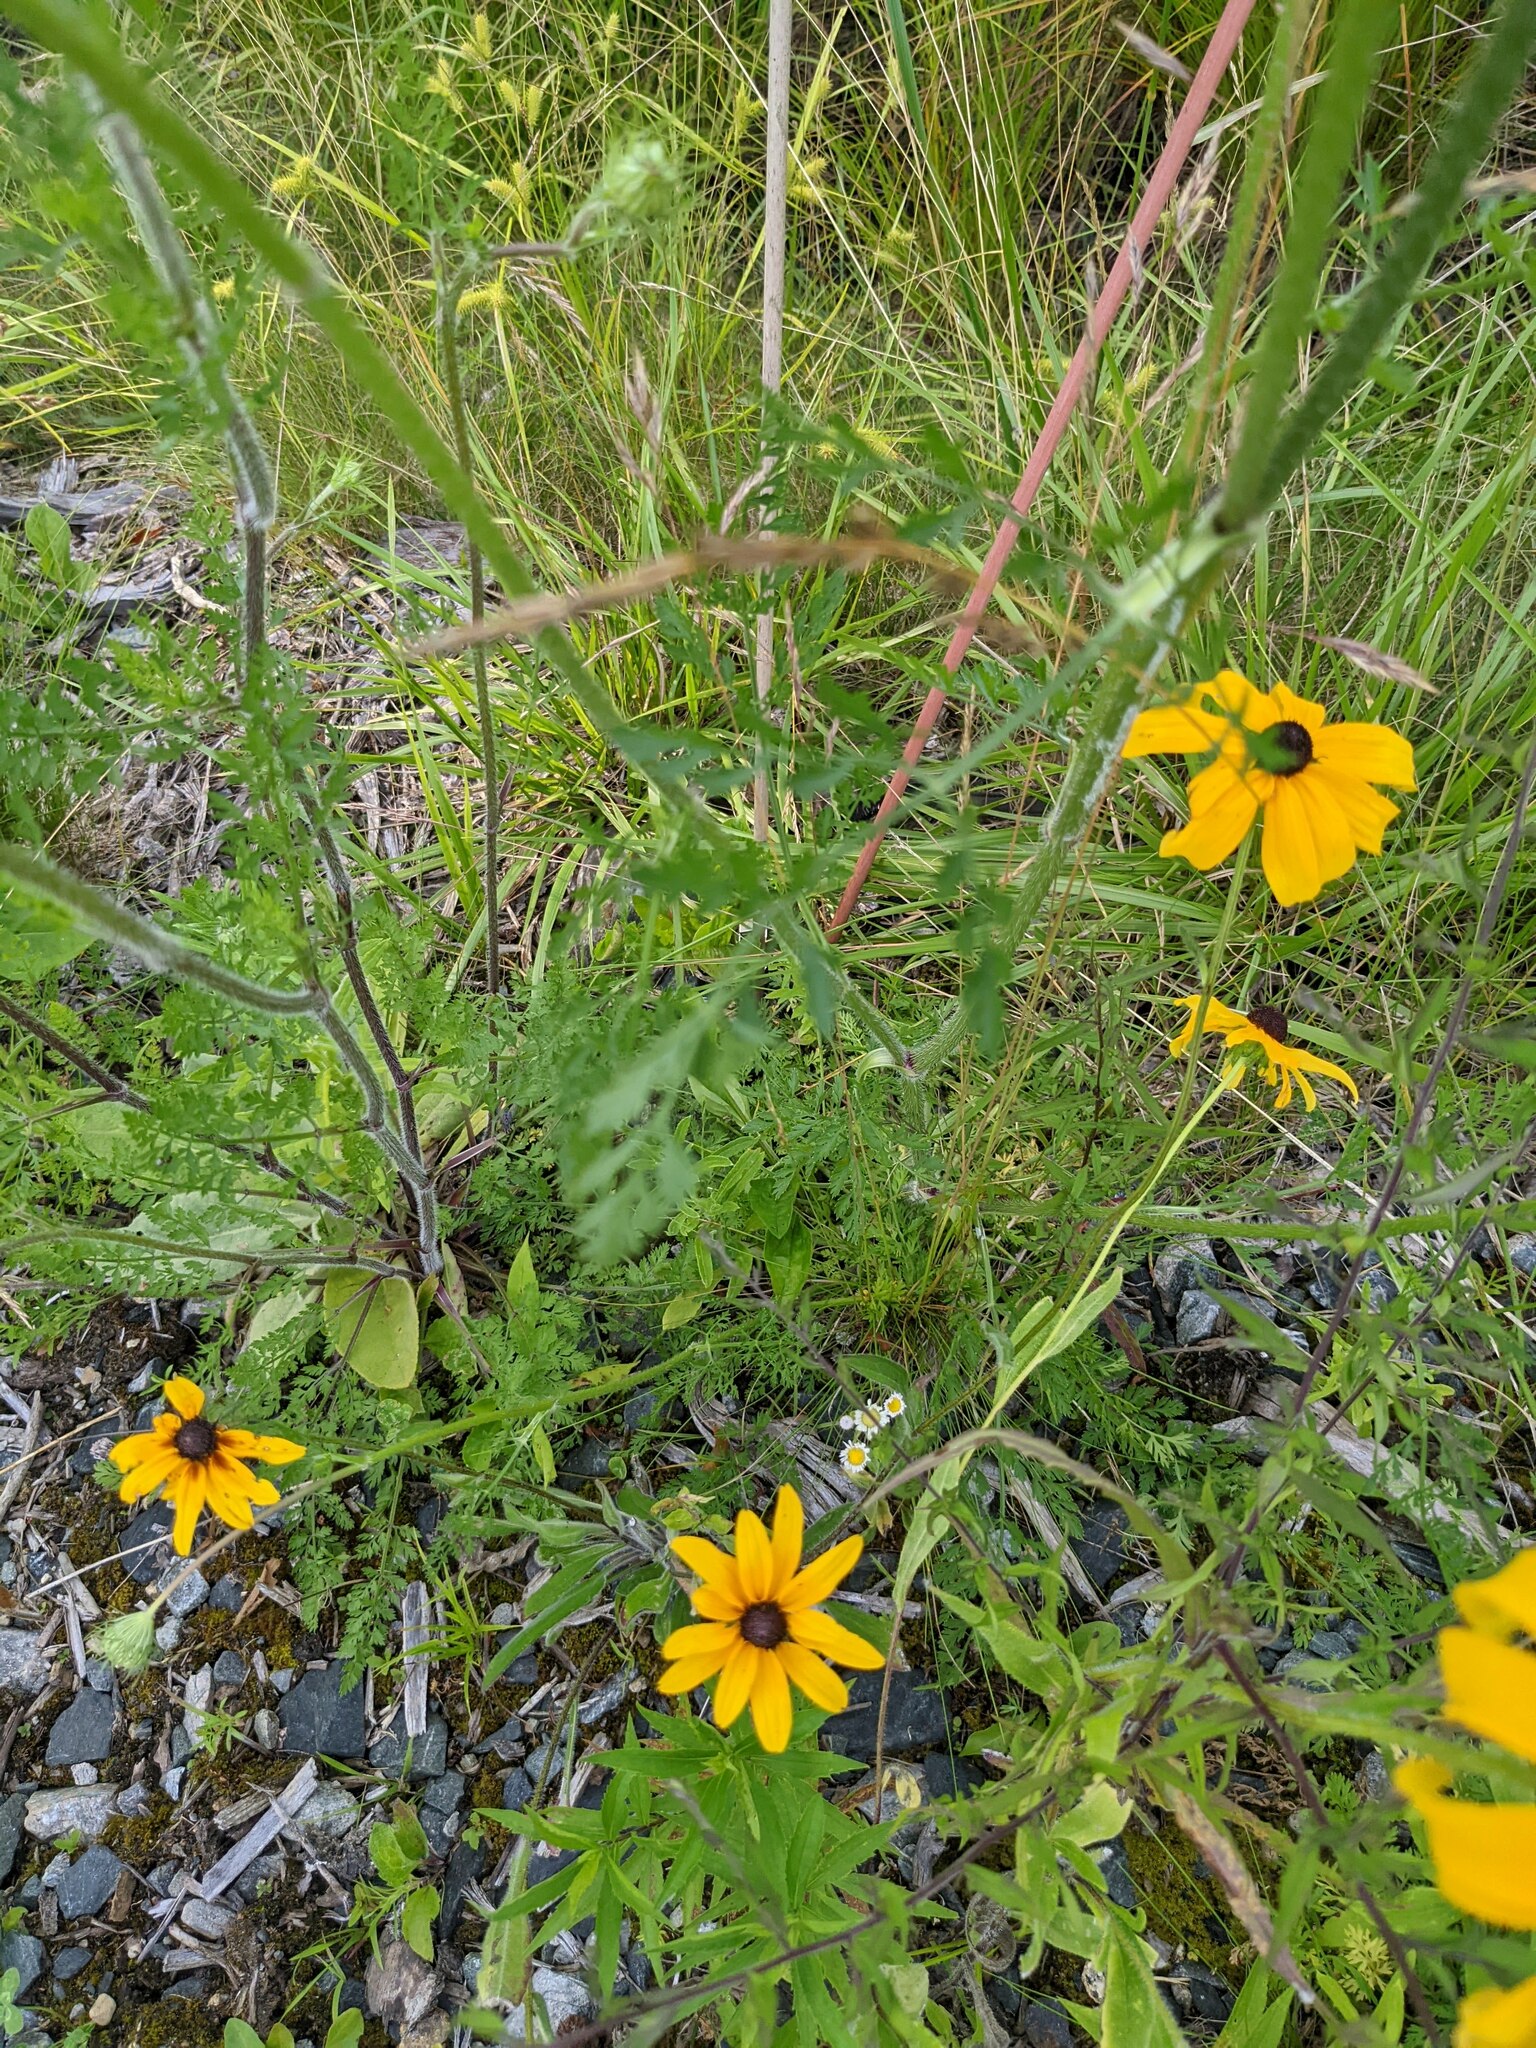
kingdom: Plantae
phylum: Tracheophyta
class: Magnoliopsida
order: Asterales
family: Asteraceae
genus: Rudbeckia
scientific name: Rudbeckia hirta
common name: Black-eyed-susan
